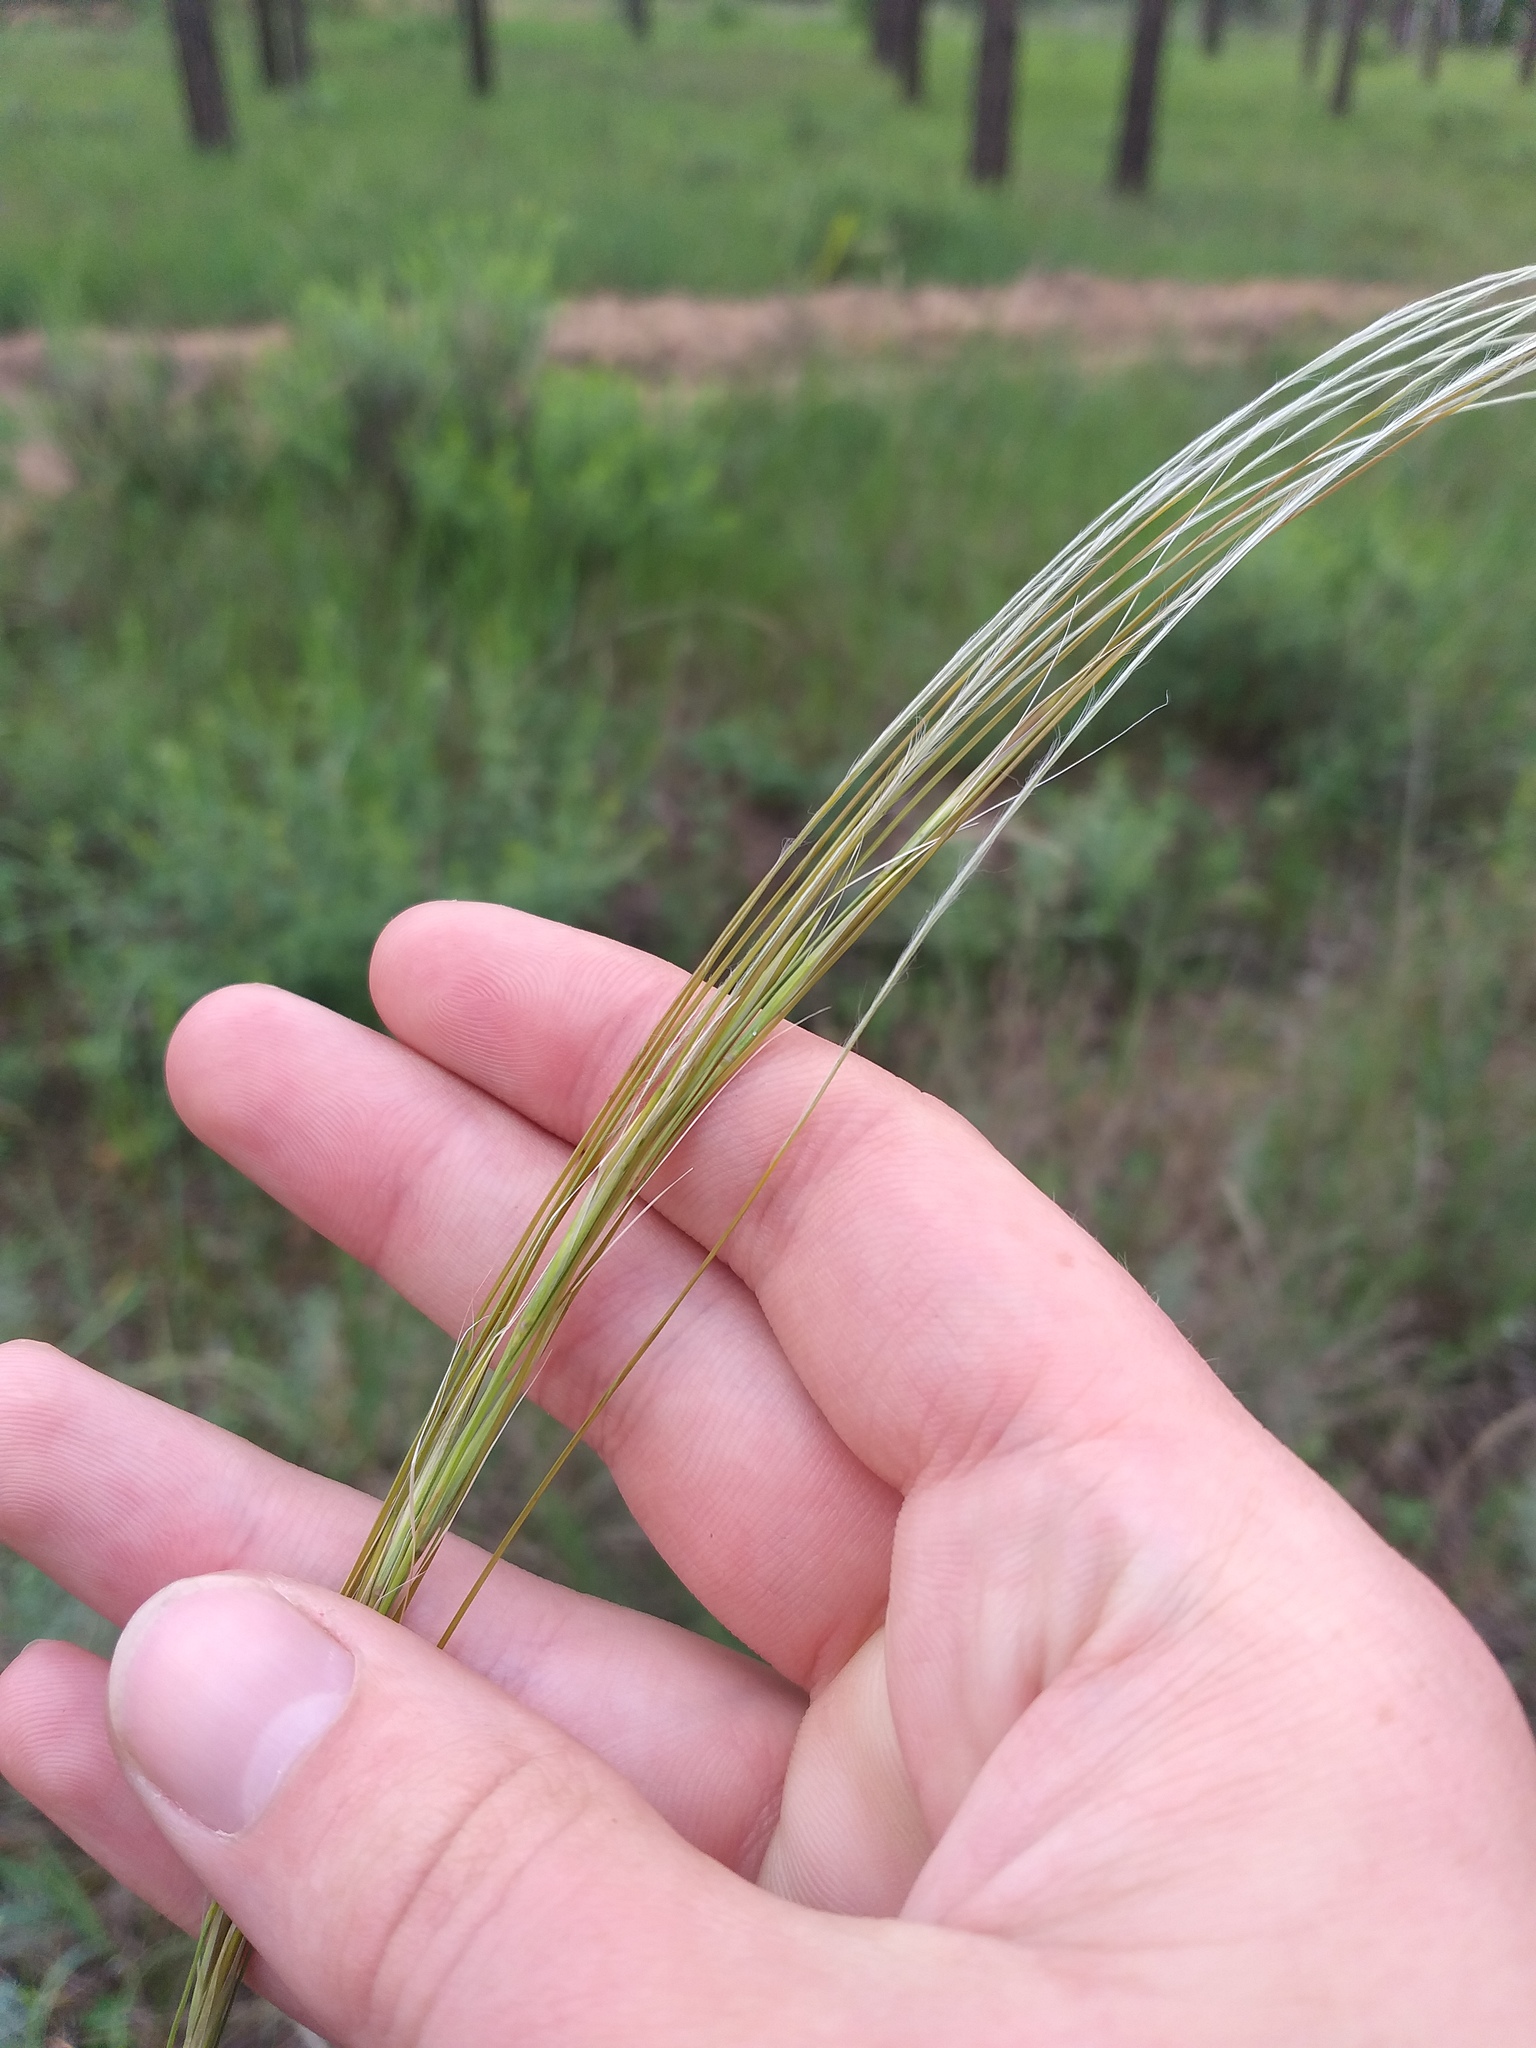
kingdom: Plantae
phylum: Tracheophyta
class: Liliopsida
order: Poales
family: Poaceae
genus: Stipa
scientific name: Stipa borysthenica
